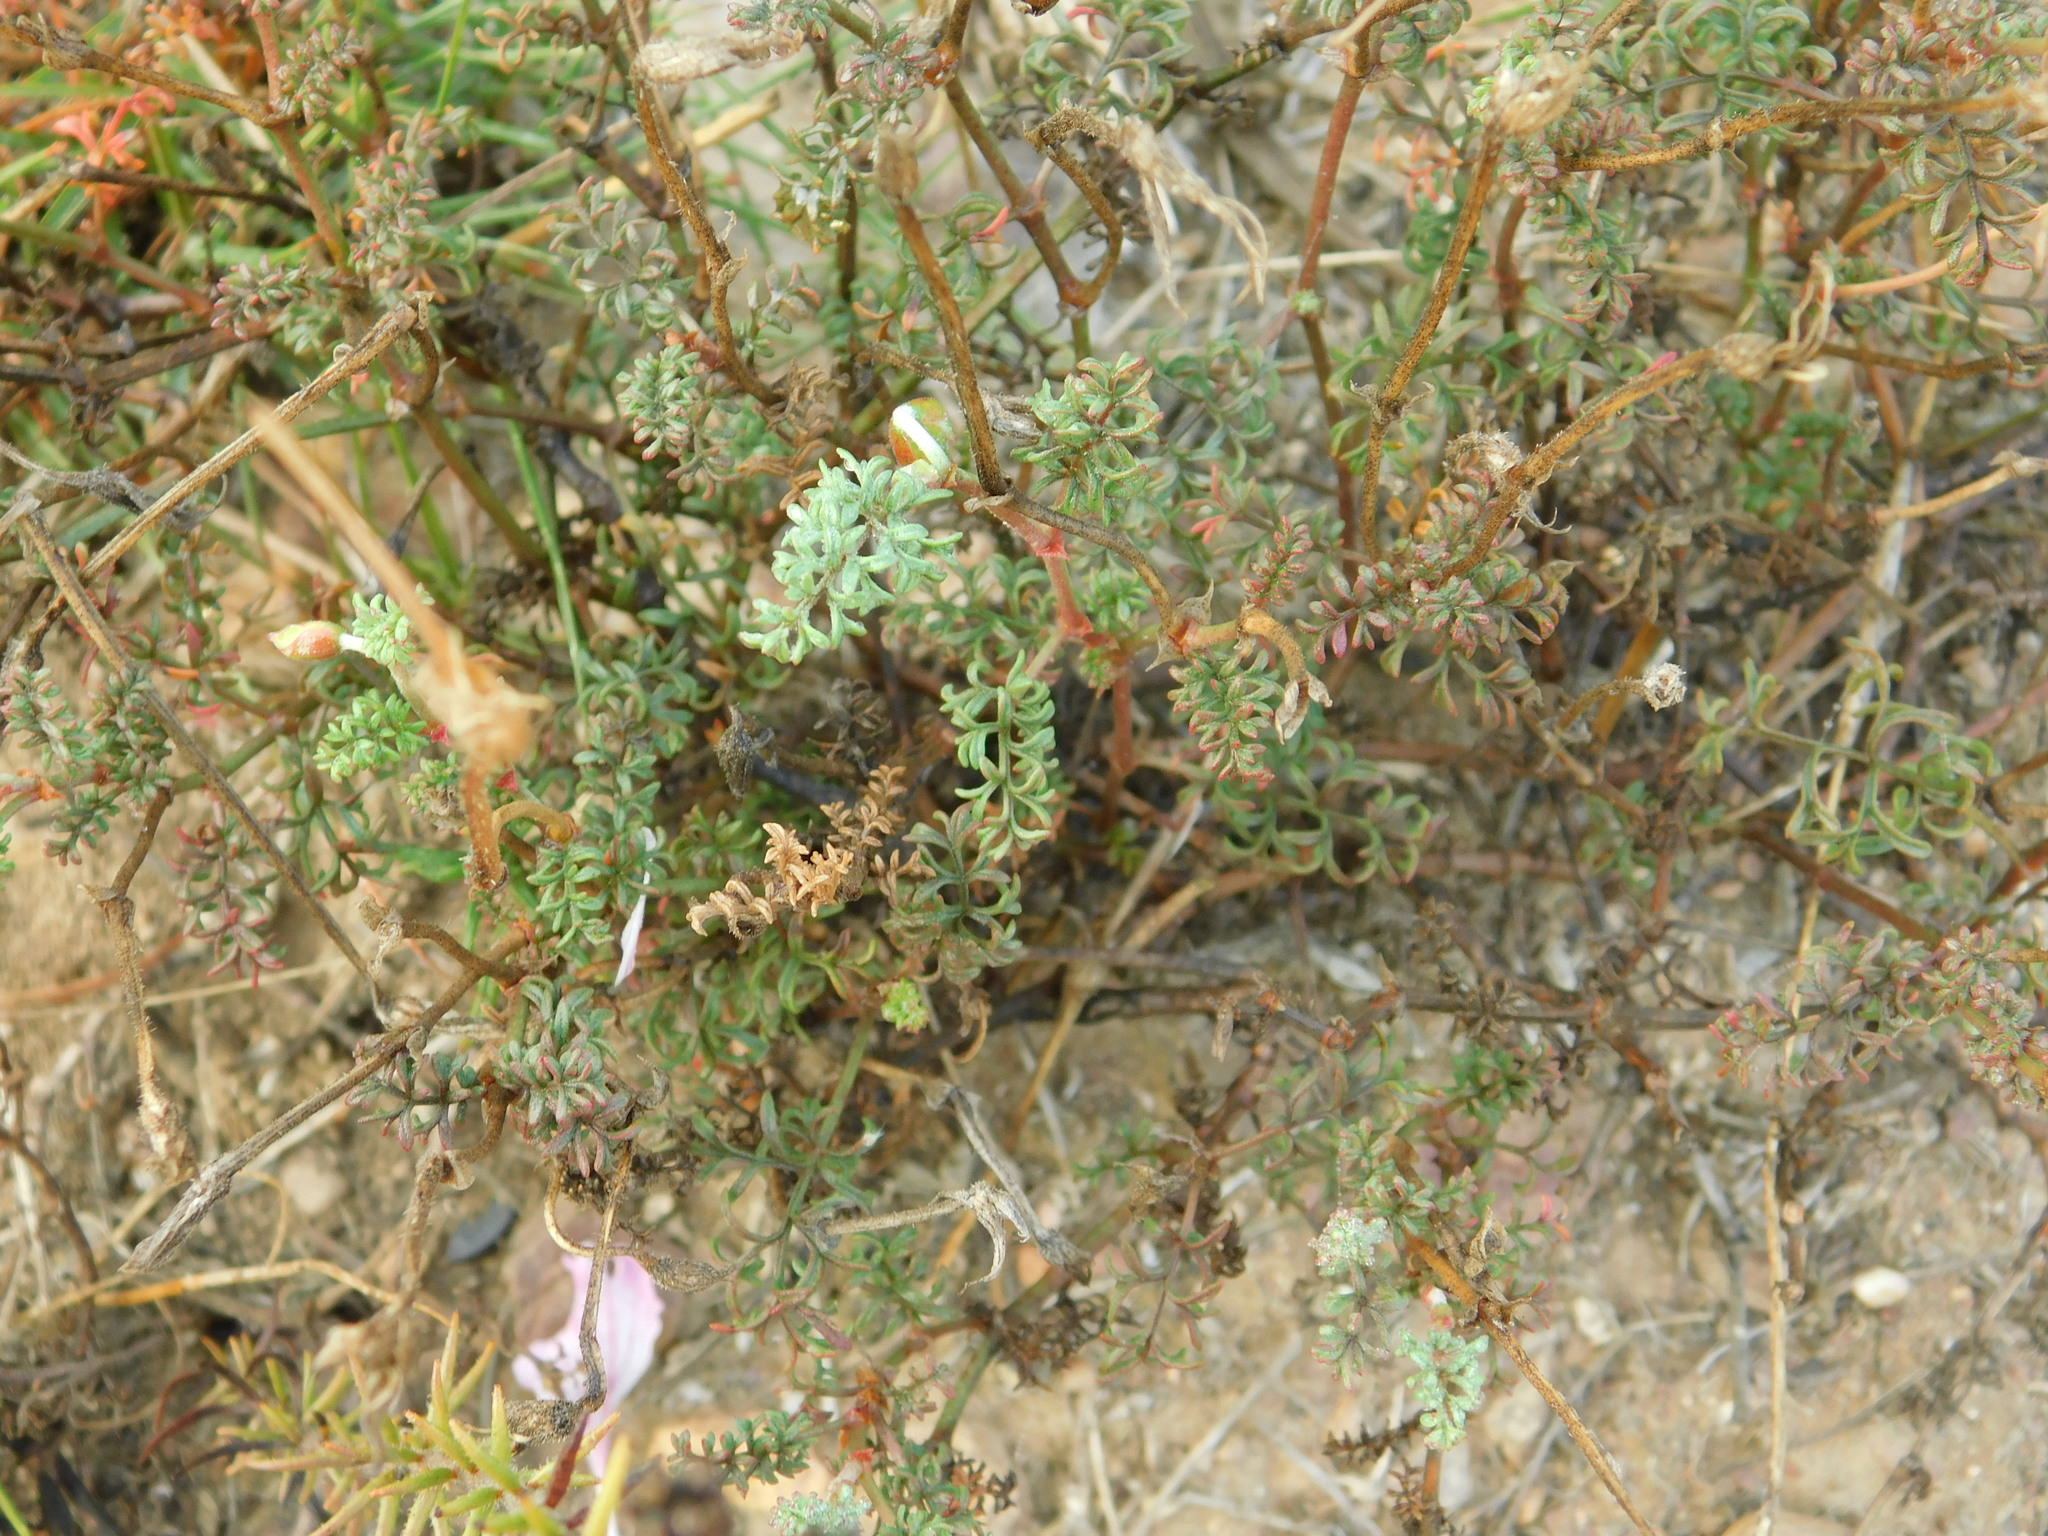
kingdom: Plantae
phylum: Tracheophyta
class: Magnoliopsida
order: Geraniales
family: Geraniaceae
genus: Pelargonium
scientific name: Pelargonium caucalifolium
